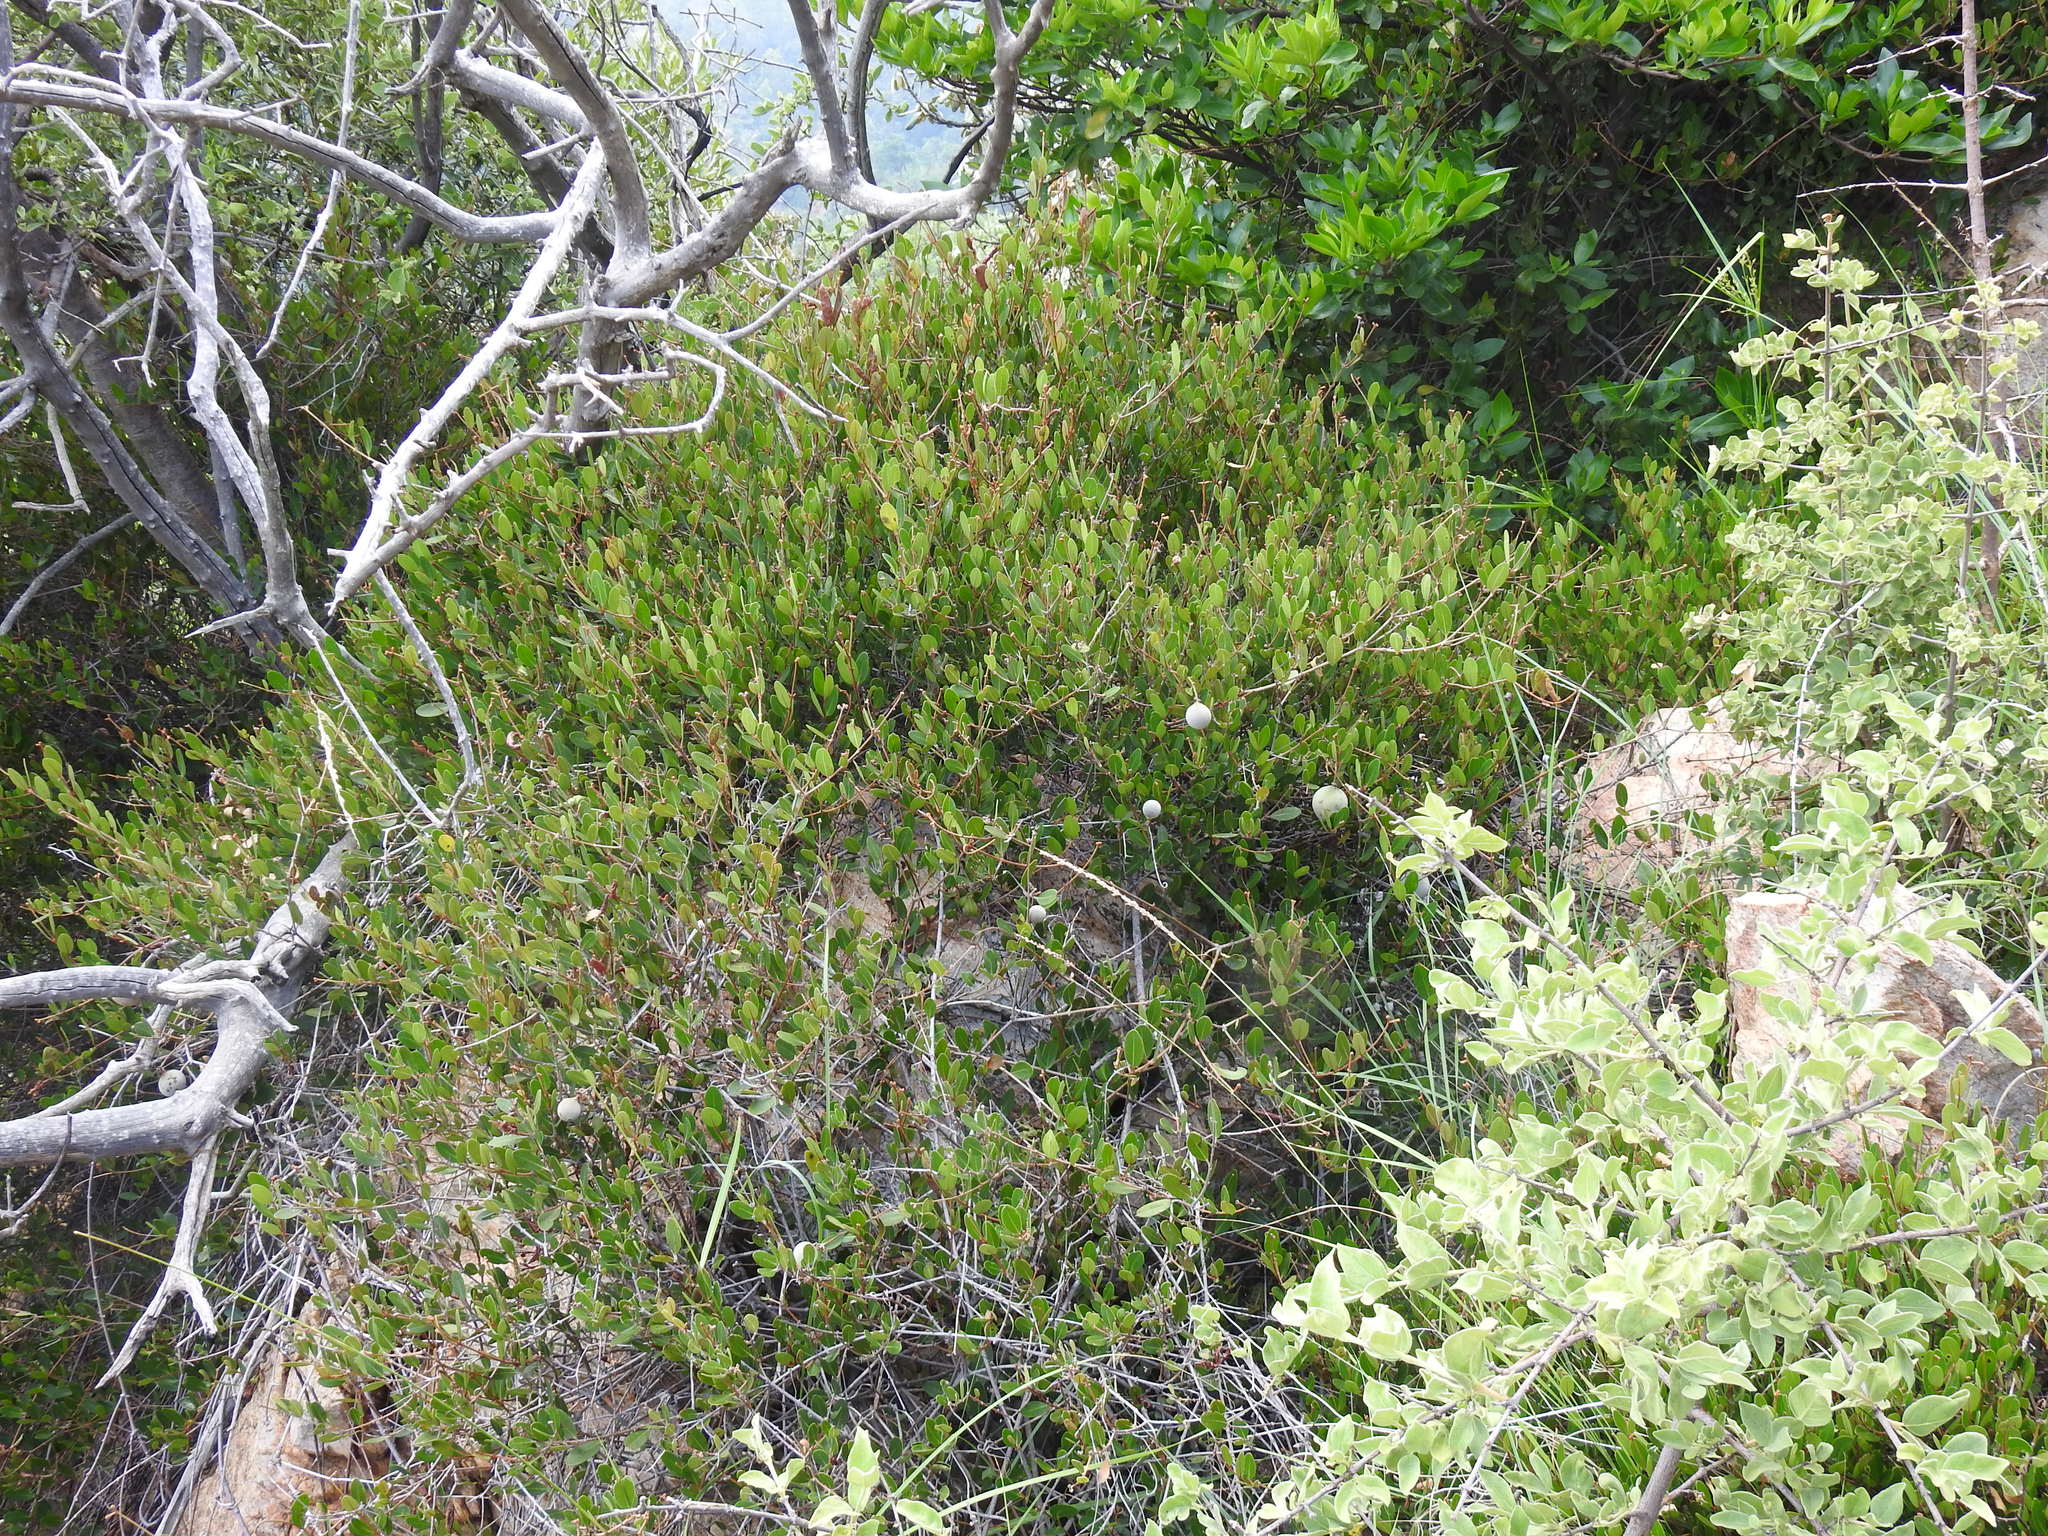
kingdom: Plantae
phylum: Tracheophyta
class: Magnoliopsida
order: Gentianales
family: Apocynaceae
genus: Ancylobothrys
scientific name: Ancylobothrys capensis
